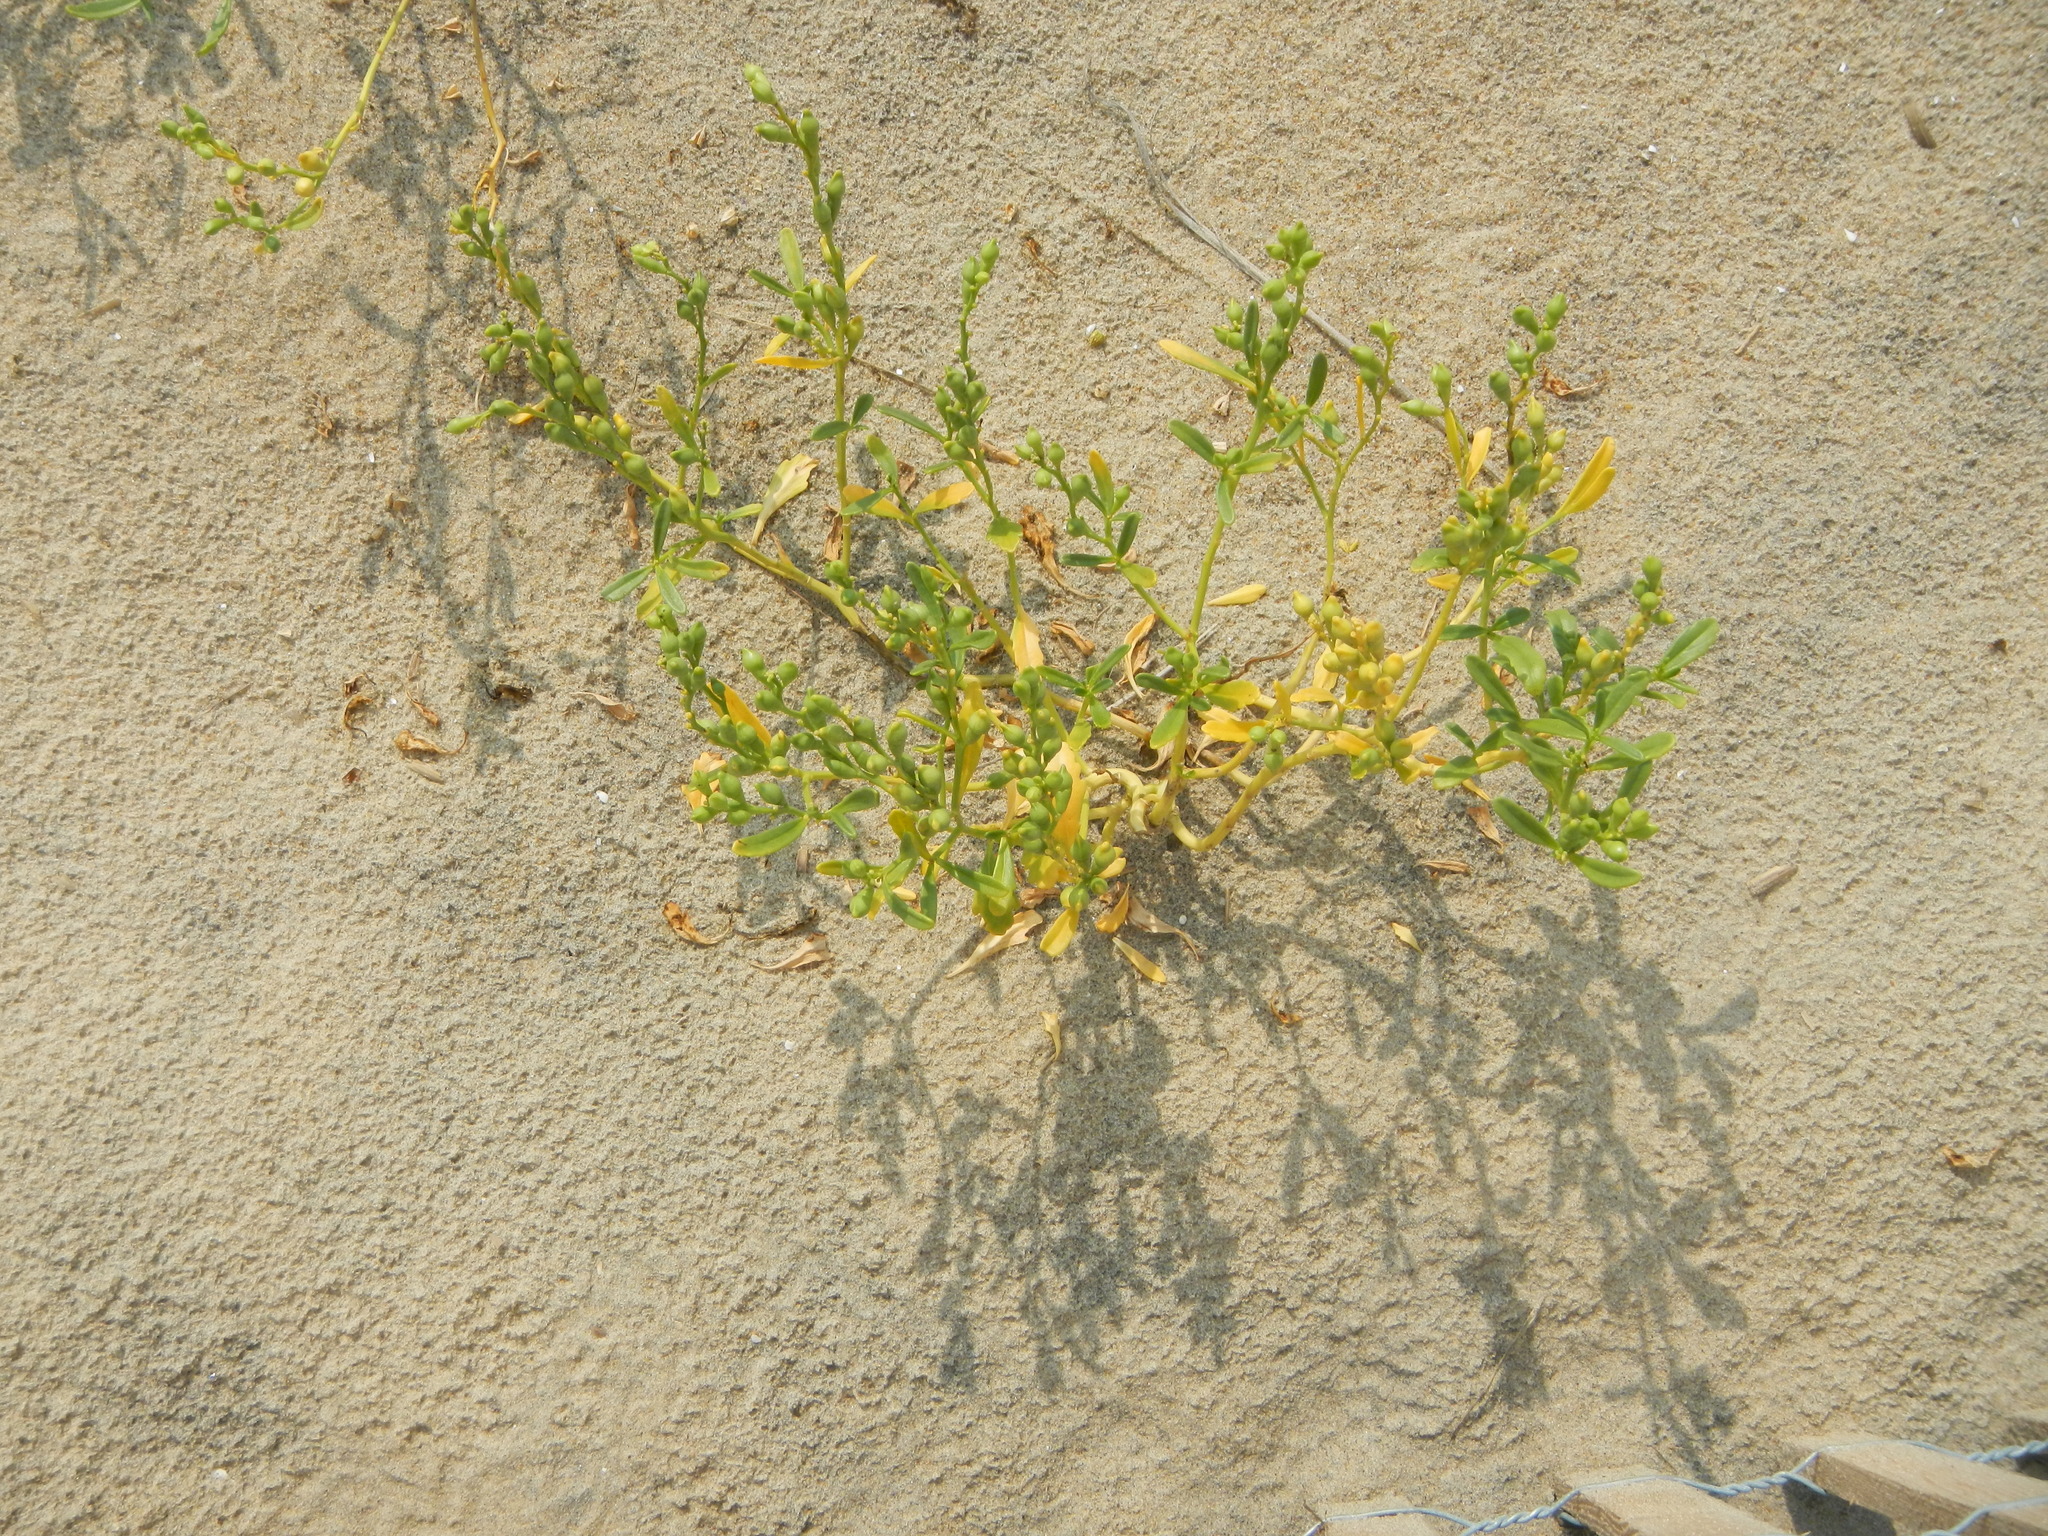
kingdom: Plantae
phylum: Tracheophyta
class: Magnoliopsida
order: Brassicales
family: Brassicaceae
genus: Cakile
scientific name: Cakile edentula
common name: American sea rocket
